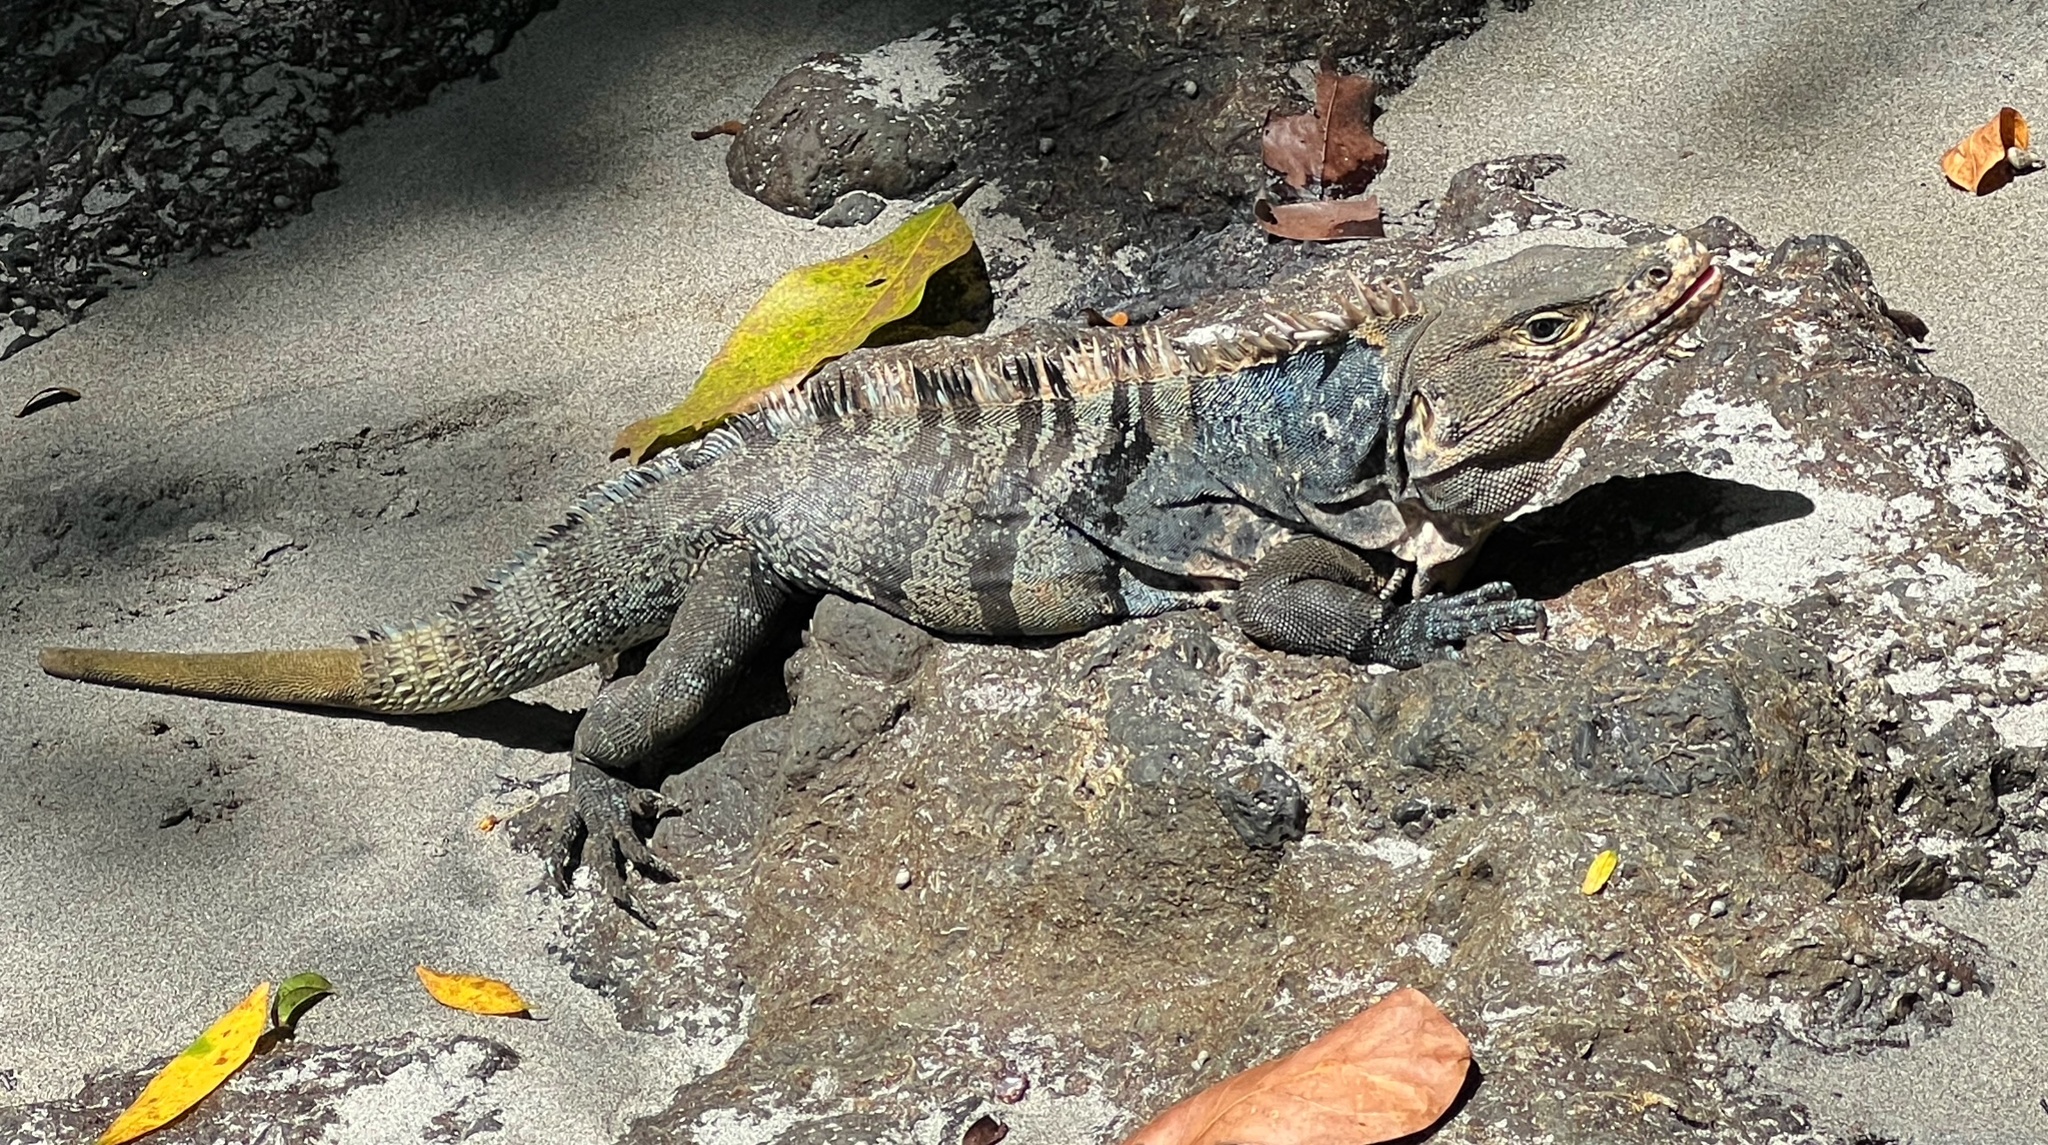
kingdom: Animalia
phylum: Chordata
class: Squamata
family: Iguanidae
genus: Ctenosaura
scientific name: Ctenosaura similis
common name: Black spiny-tailed iguana
